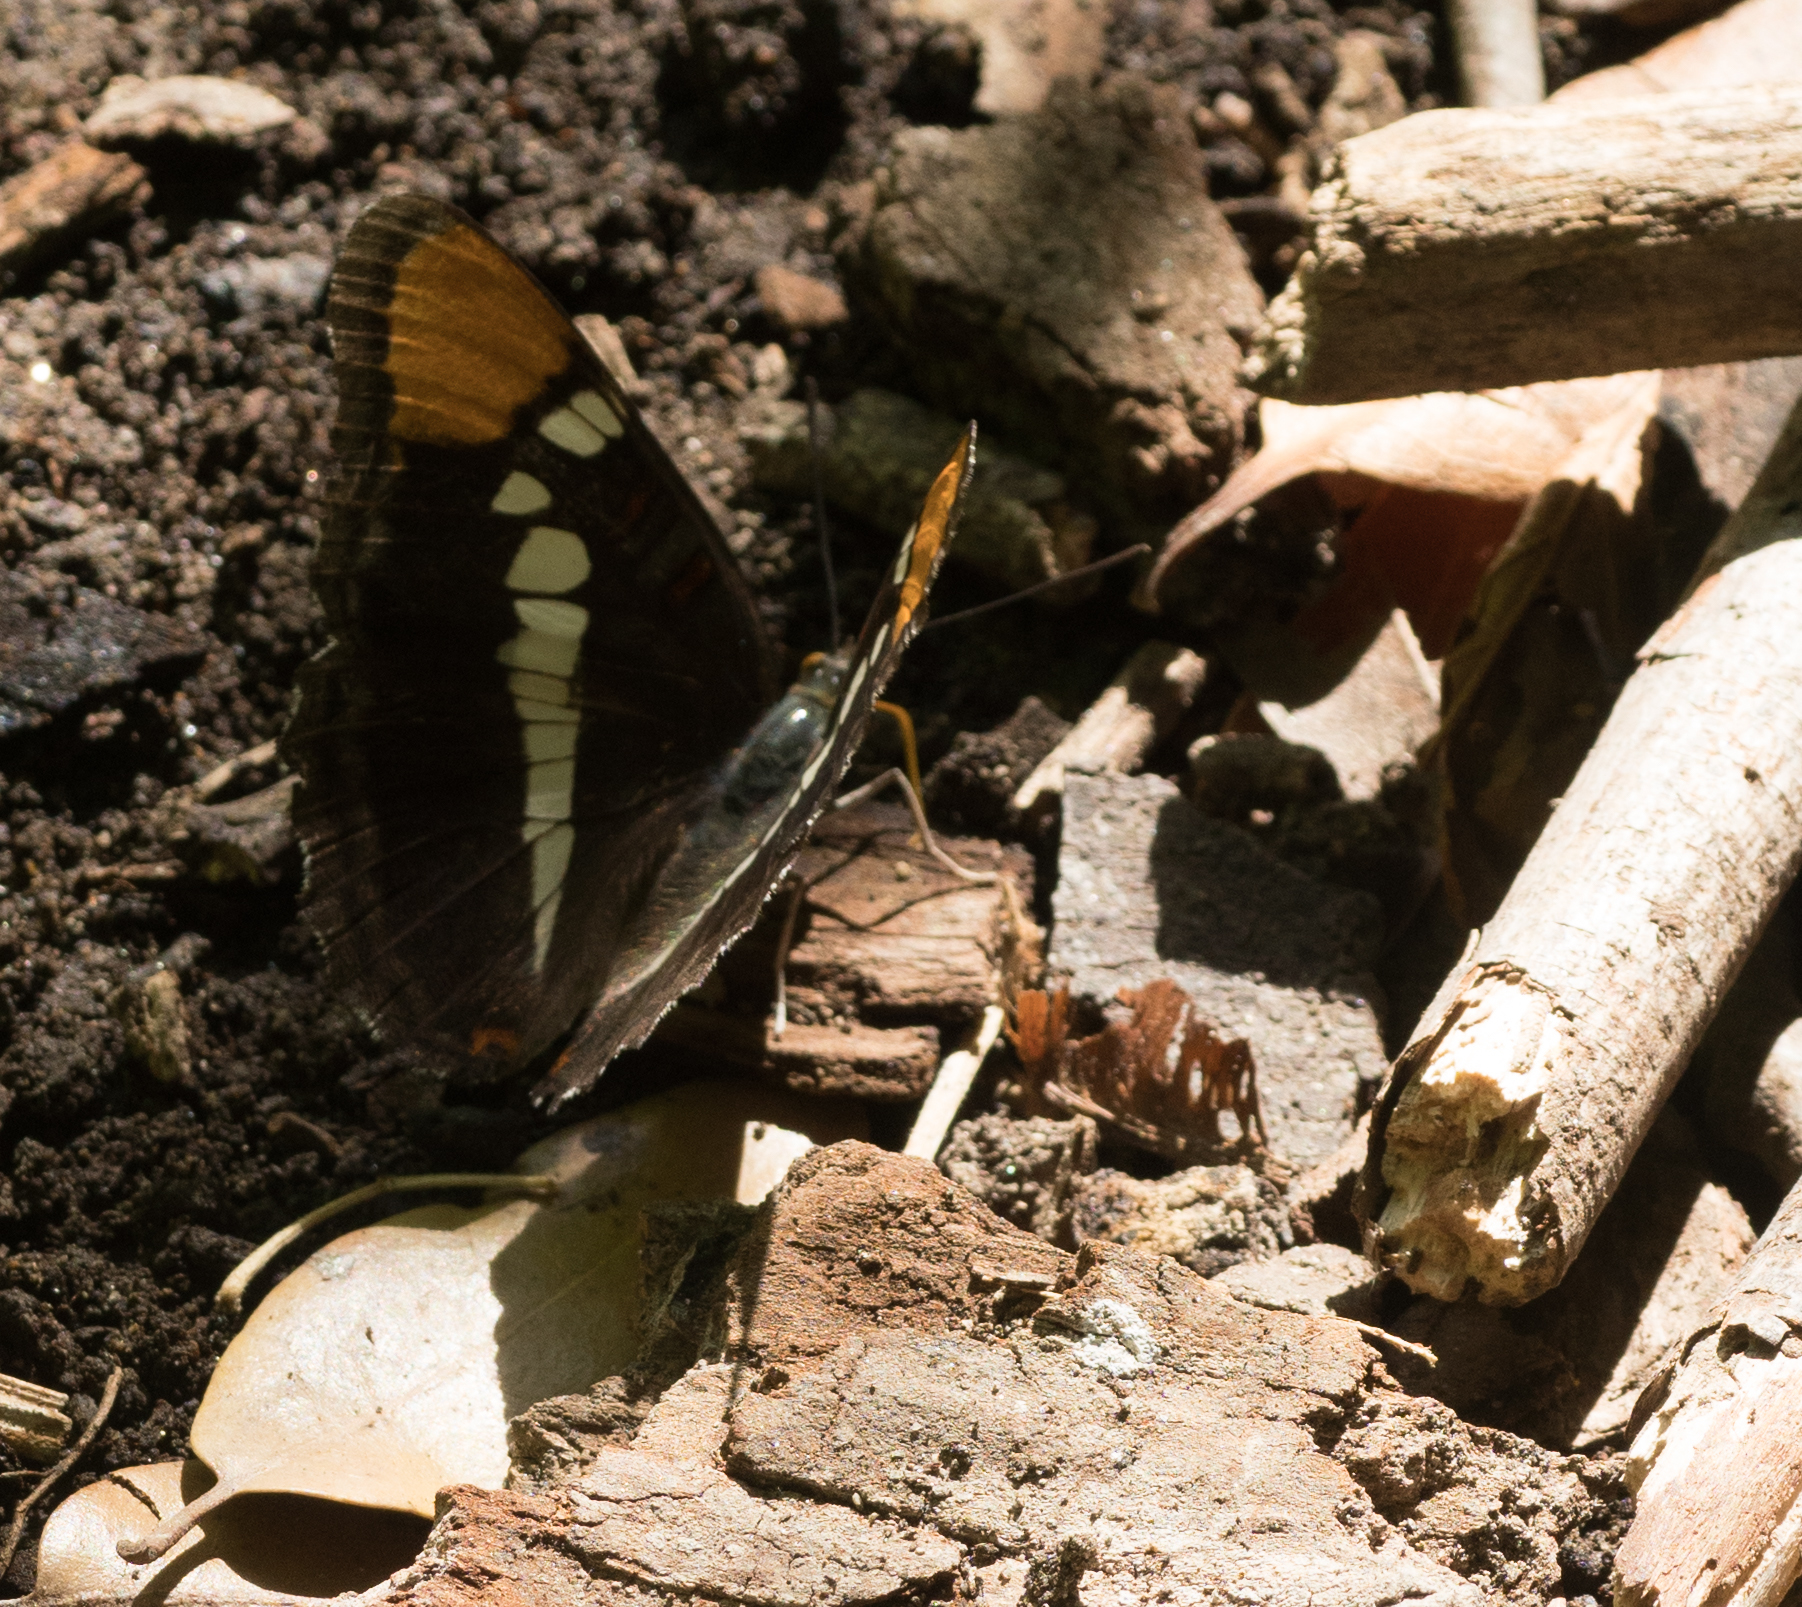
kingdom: Animalia
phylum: Arthropoda
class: Insecta
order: Lepidoptera
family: Nymphalidae
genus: Limenitis
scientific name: Limenitis bredowii
